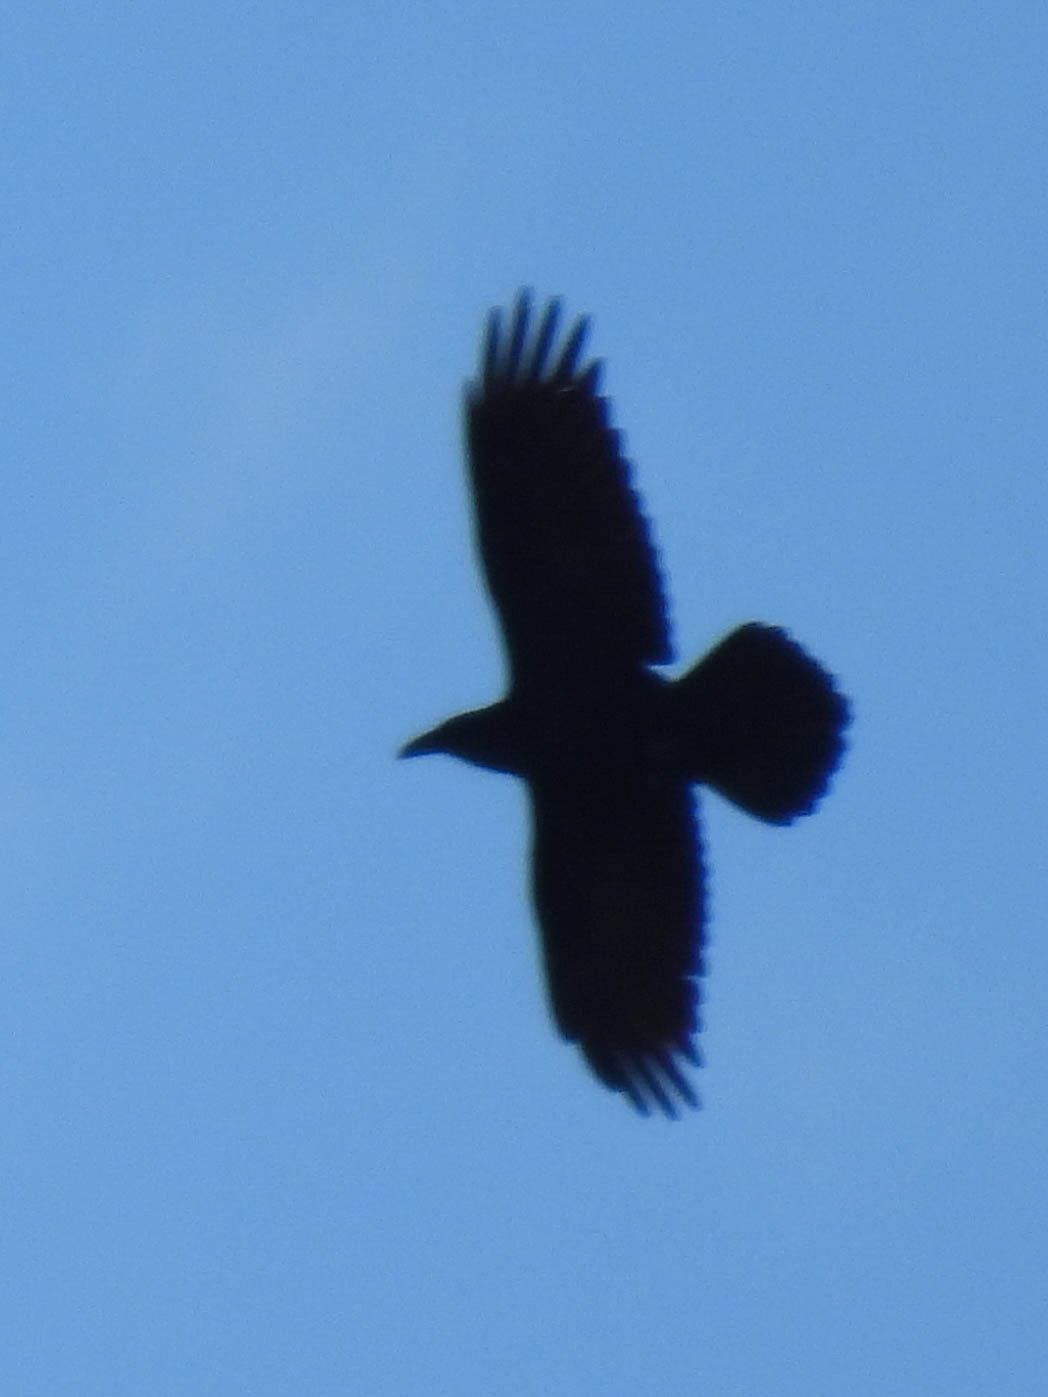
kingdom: Animalia
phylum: Chordata
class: Aves
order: Passeriformes
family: Corvidae
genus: Corvus
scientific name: Corvus corax
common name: Common raven
